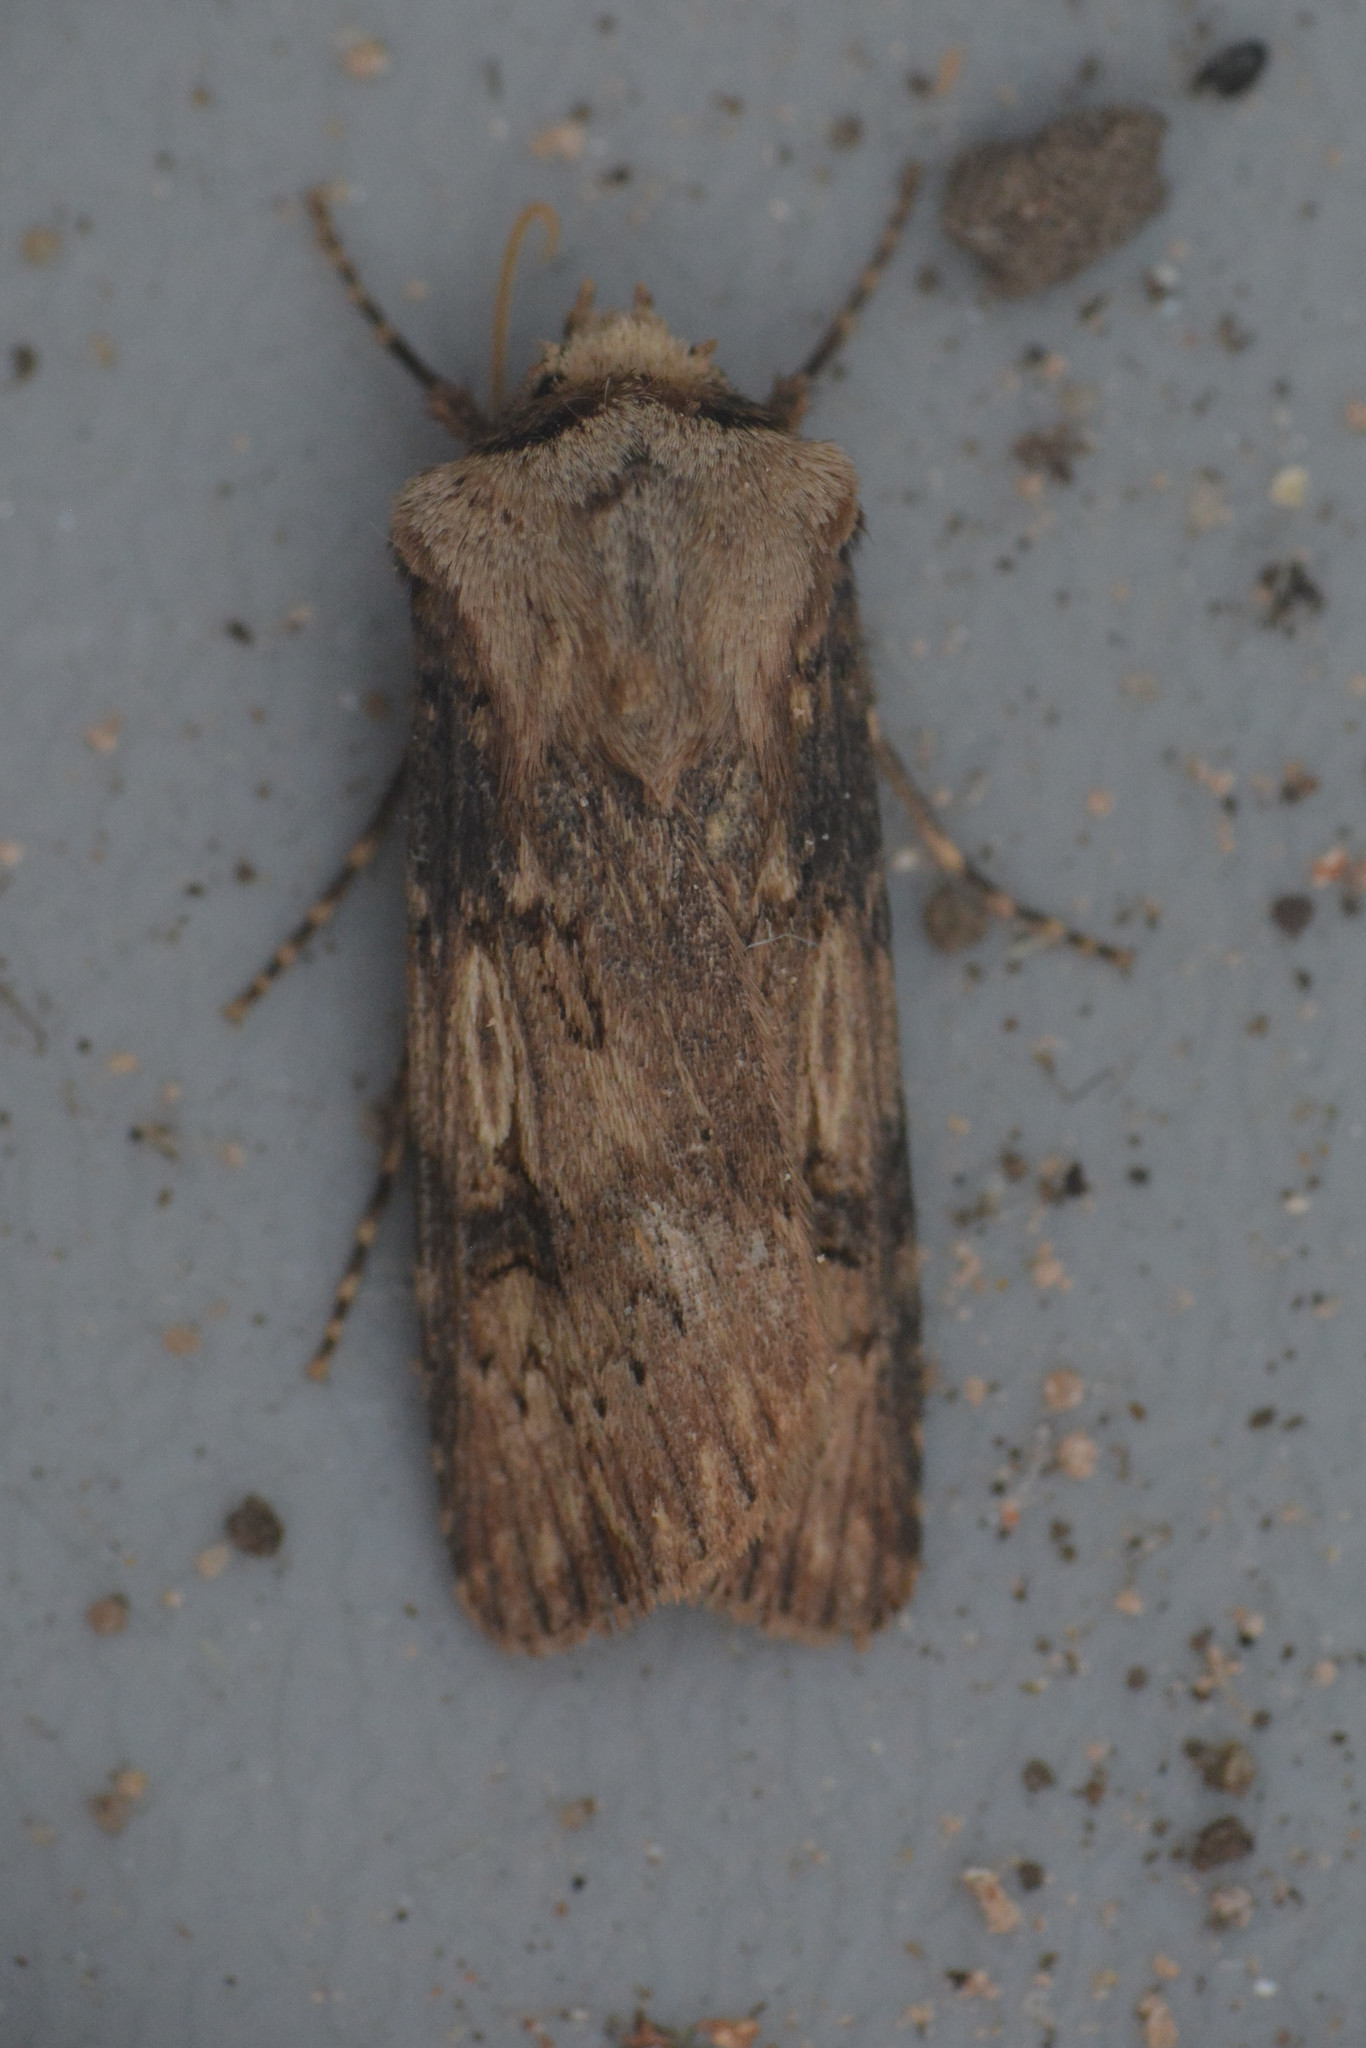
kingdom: Animalia
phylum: Arthropoda
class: Insecta
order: Lepidoptera
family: Noctuidae
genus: Agrotis
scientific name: Agrotis puta
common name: Shuttle-shaped dart
